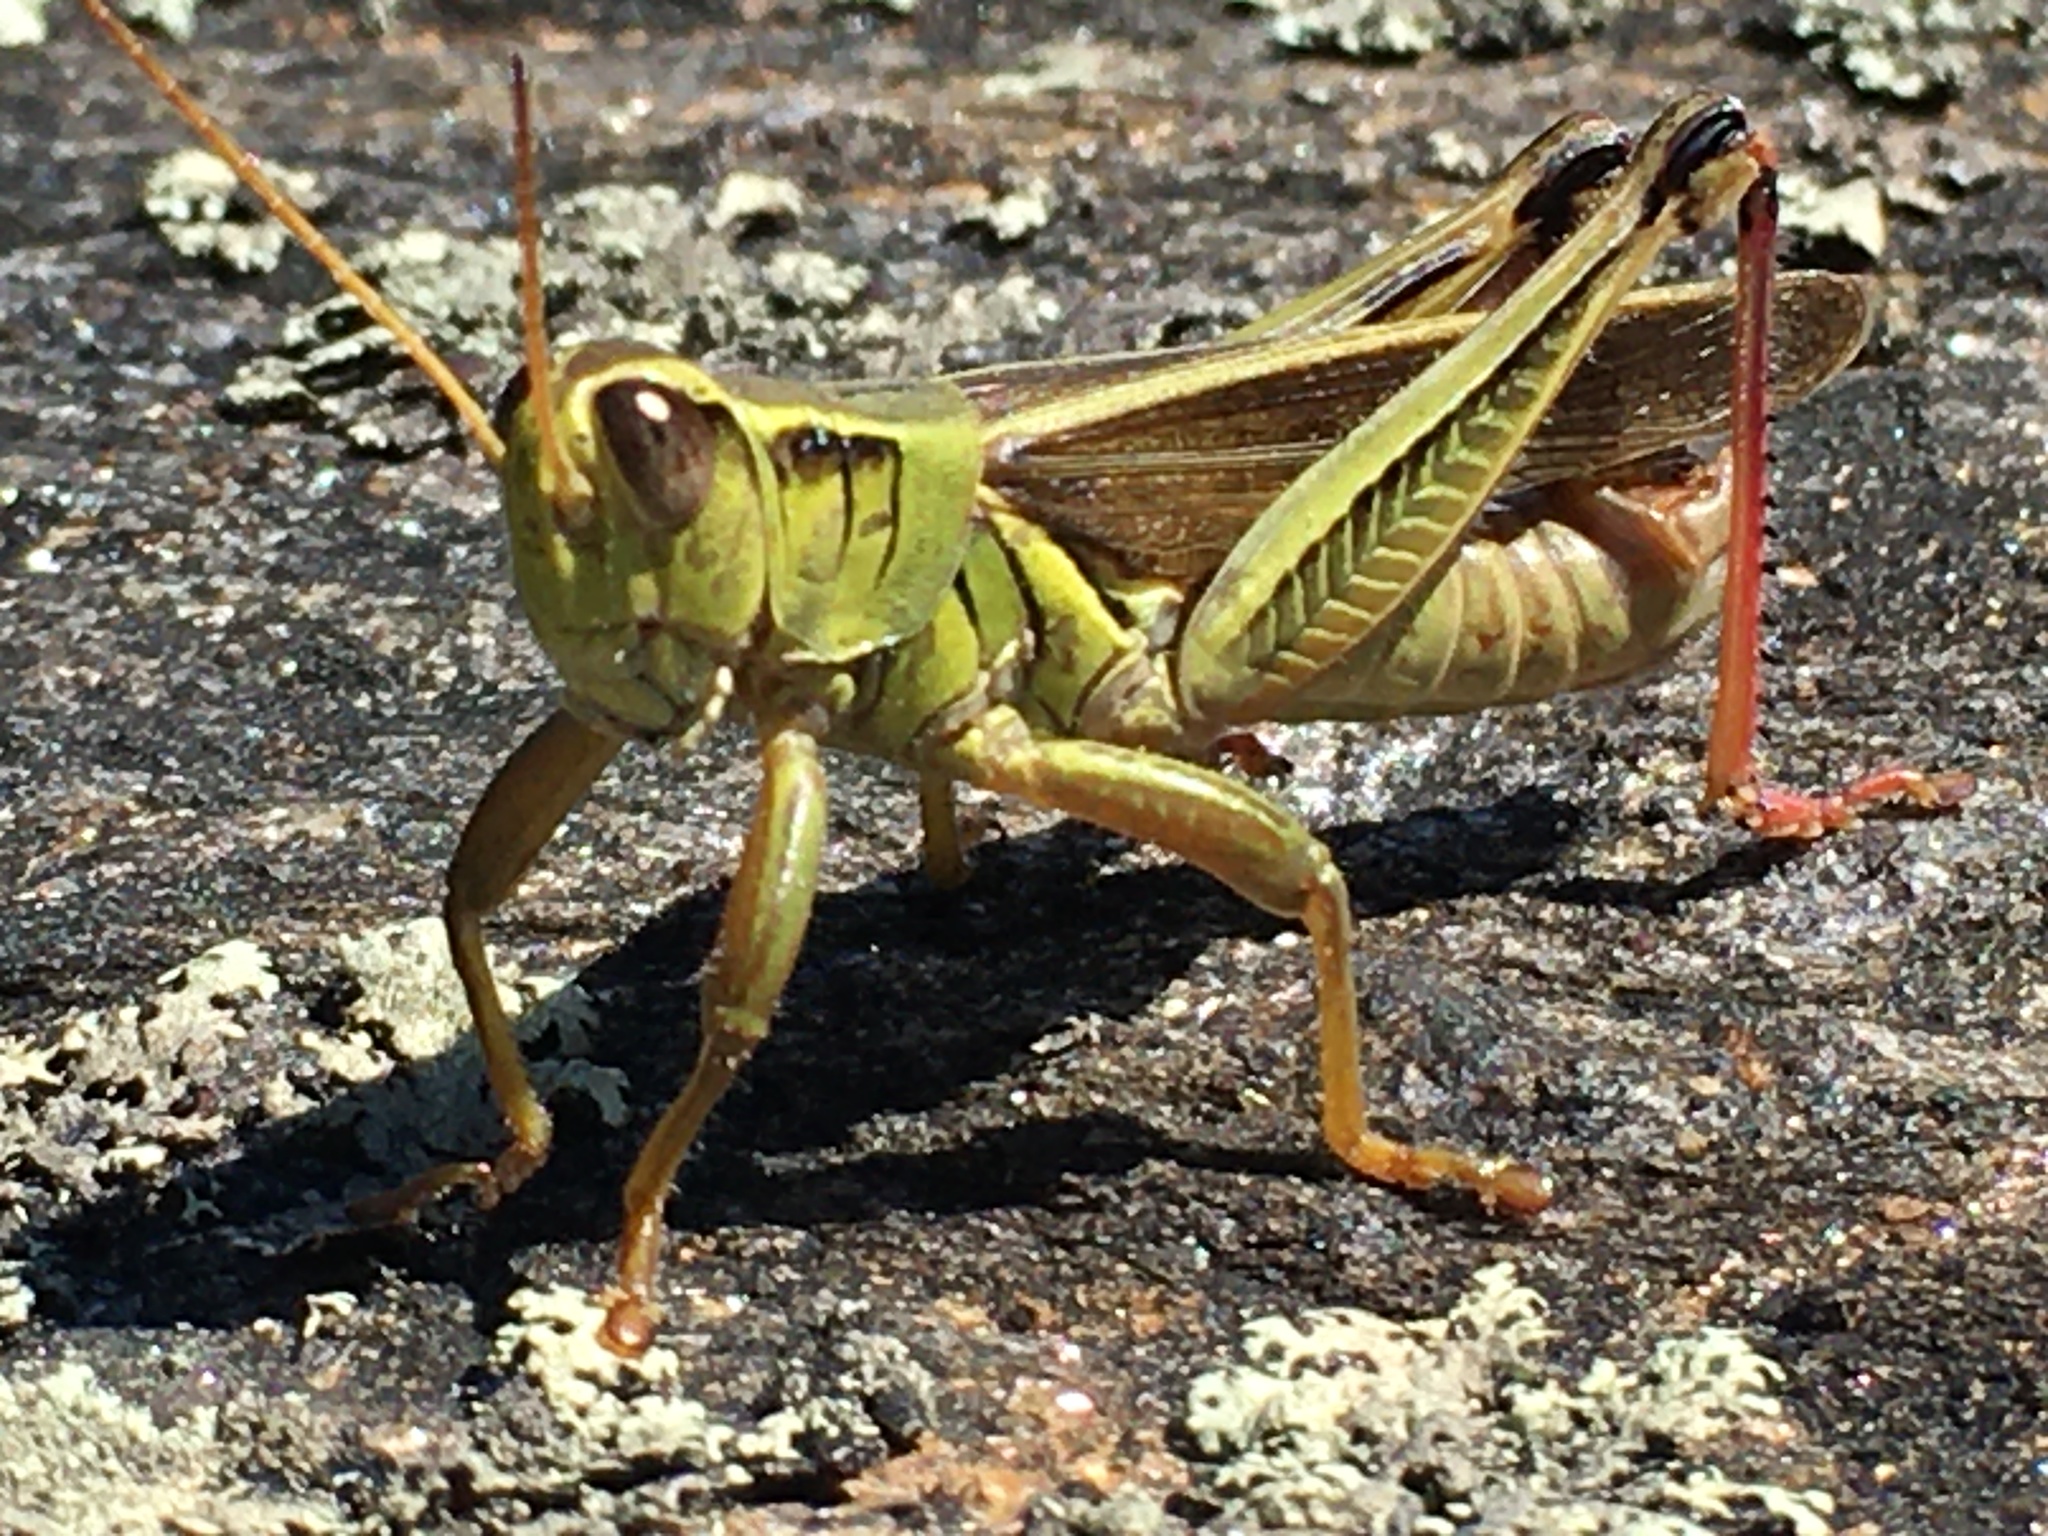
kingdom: Animalia
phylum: Arthropoda
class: Insecta
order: Orthoptera
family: Acrididae
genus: Melanoplus
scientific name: Melanoplus bivittatus
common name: Two-striped grasshopper
